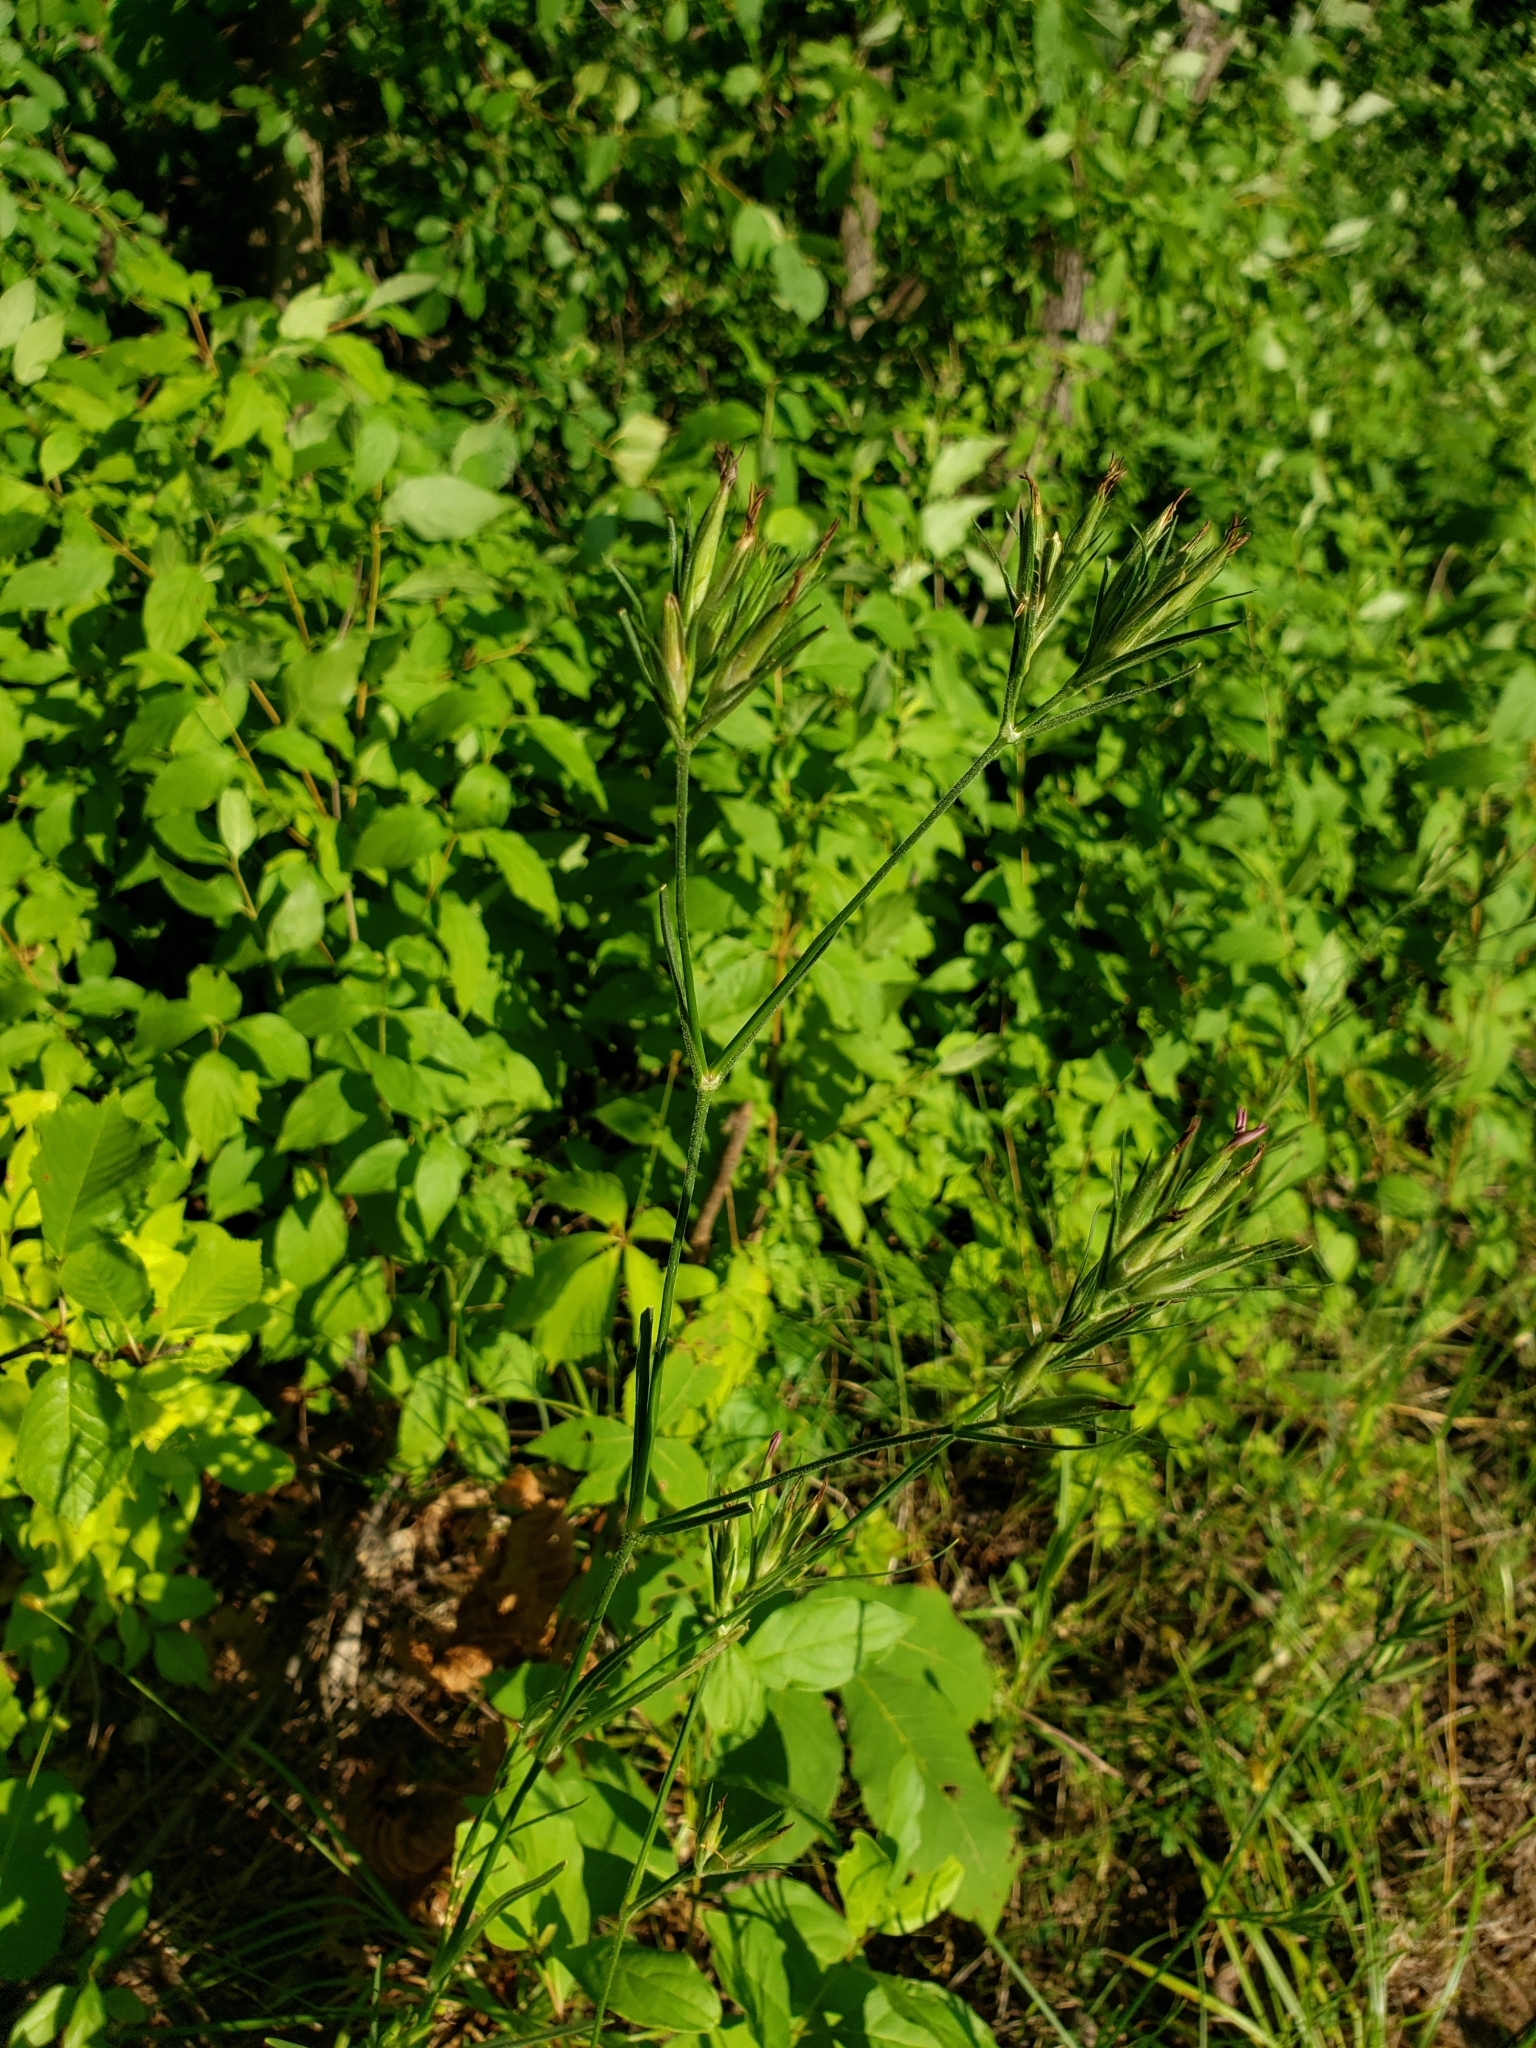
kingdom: Plantae
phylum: Tracheophyta
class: Magnoliopsida
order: Caryophyllales
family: Caryophyllaceae
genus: Dianthus
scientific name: Dianthus armeria
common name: Deptford pink
